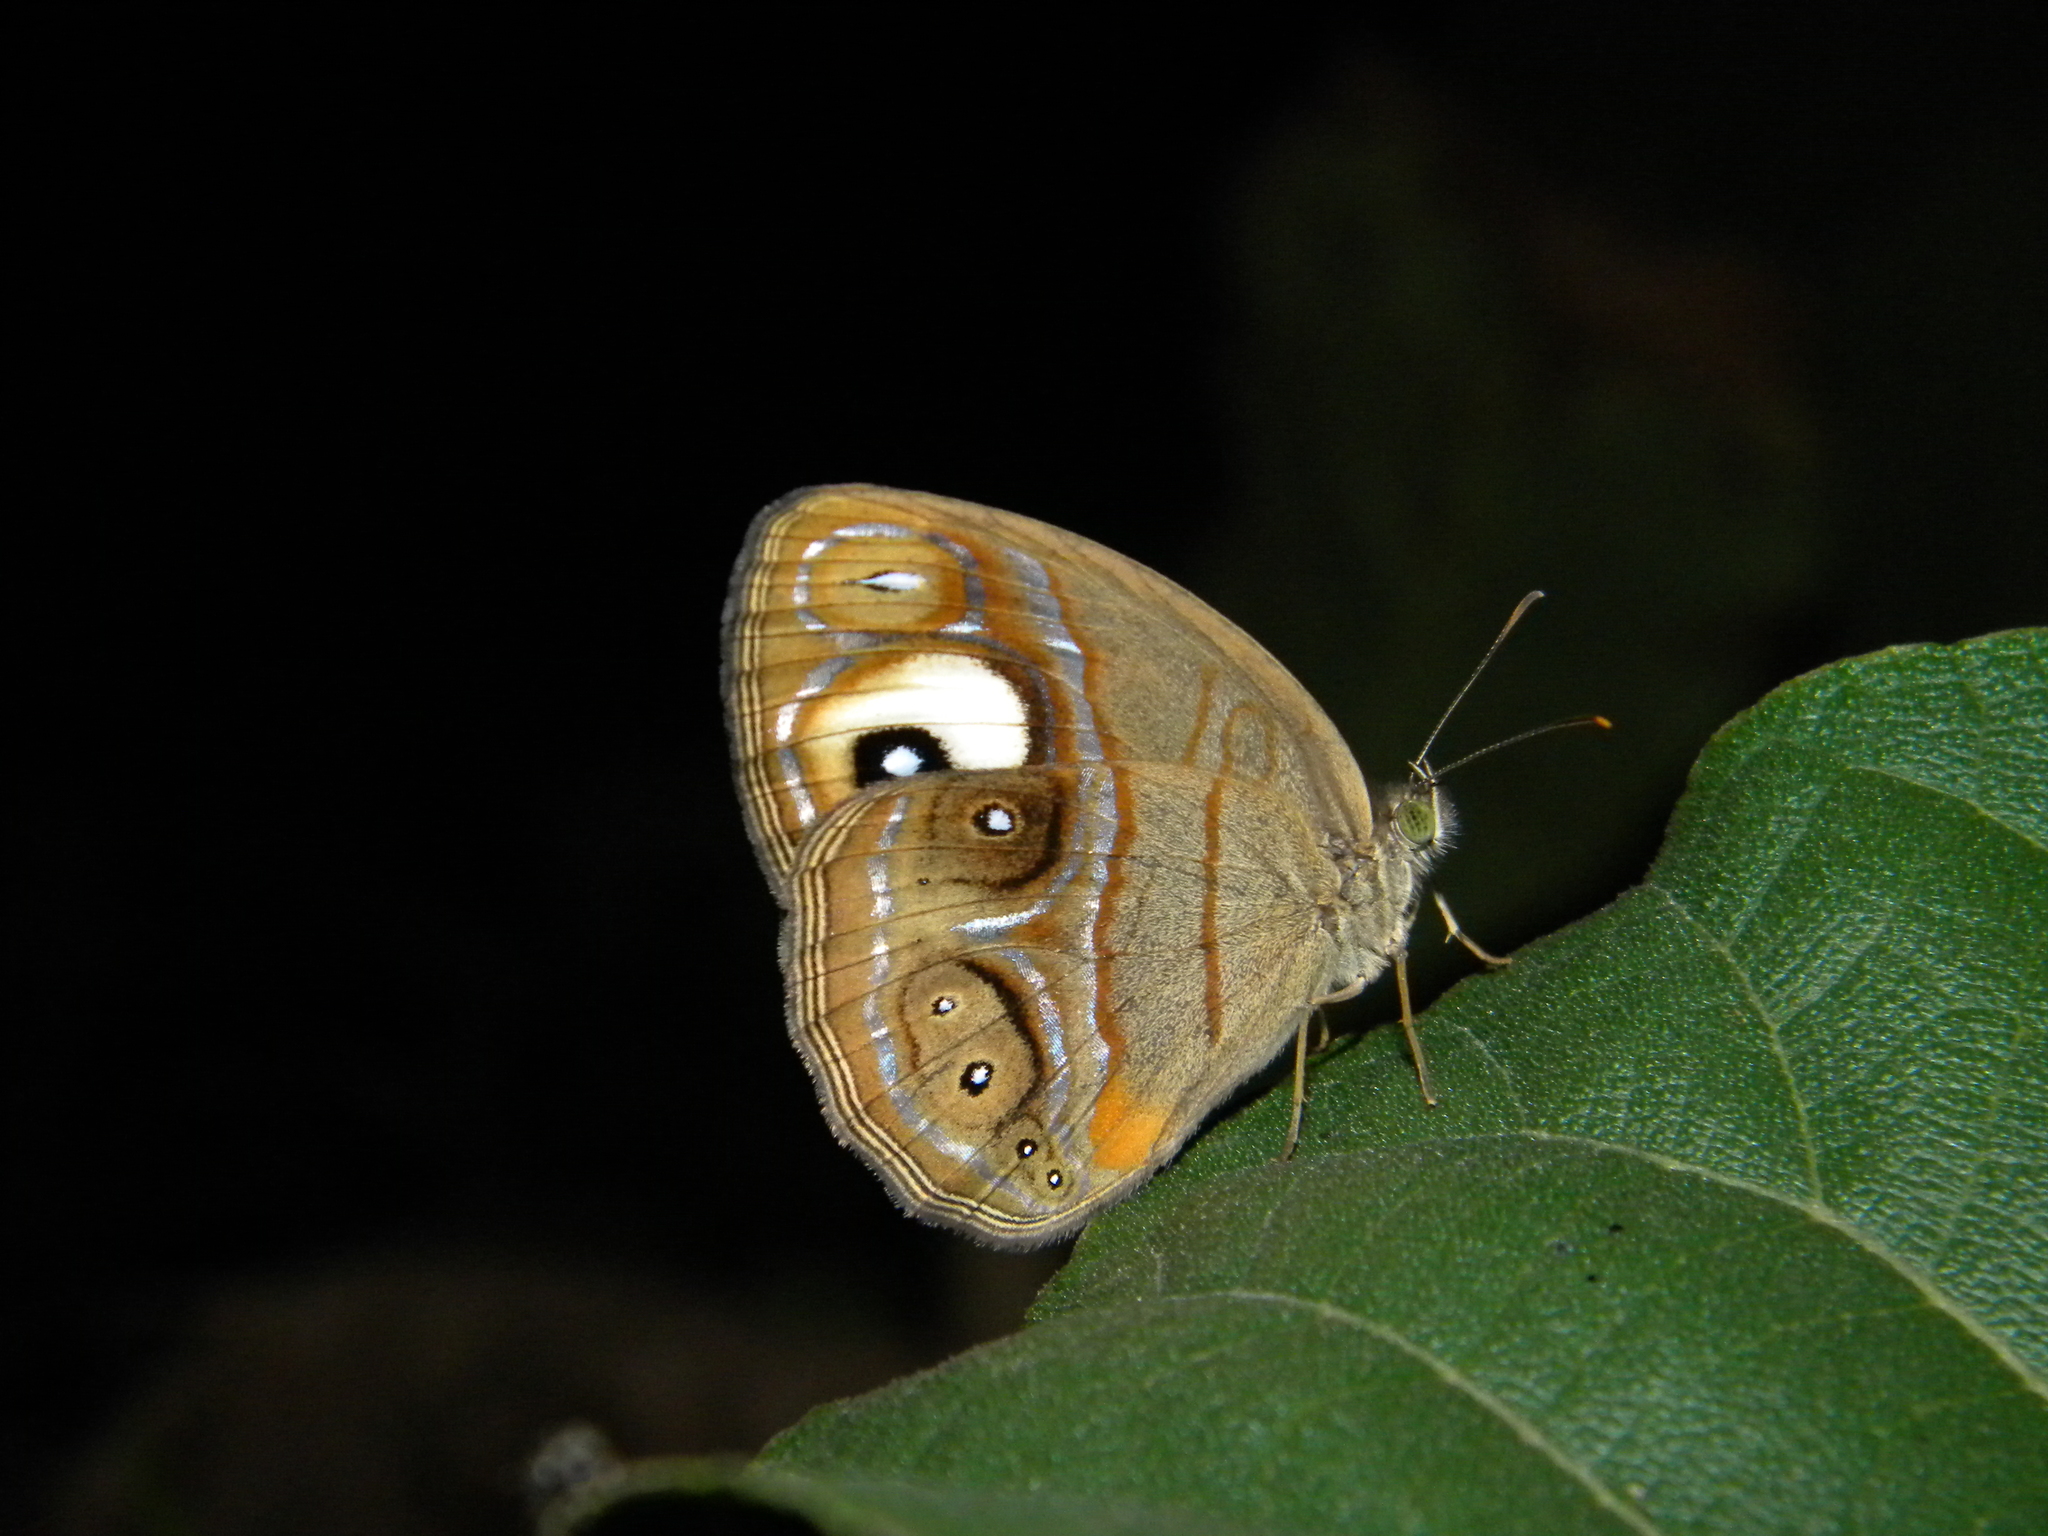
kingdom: Animalia
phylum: Arthropoda
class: Insecta
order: Lepidoptera
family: Nymphalidae
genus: Mycalesis
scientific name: Mycalesis patnia
